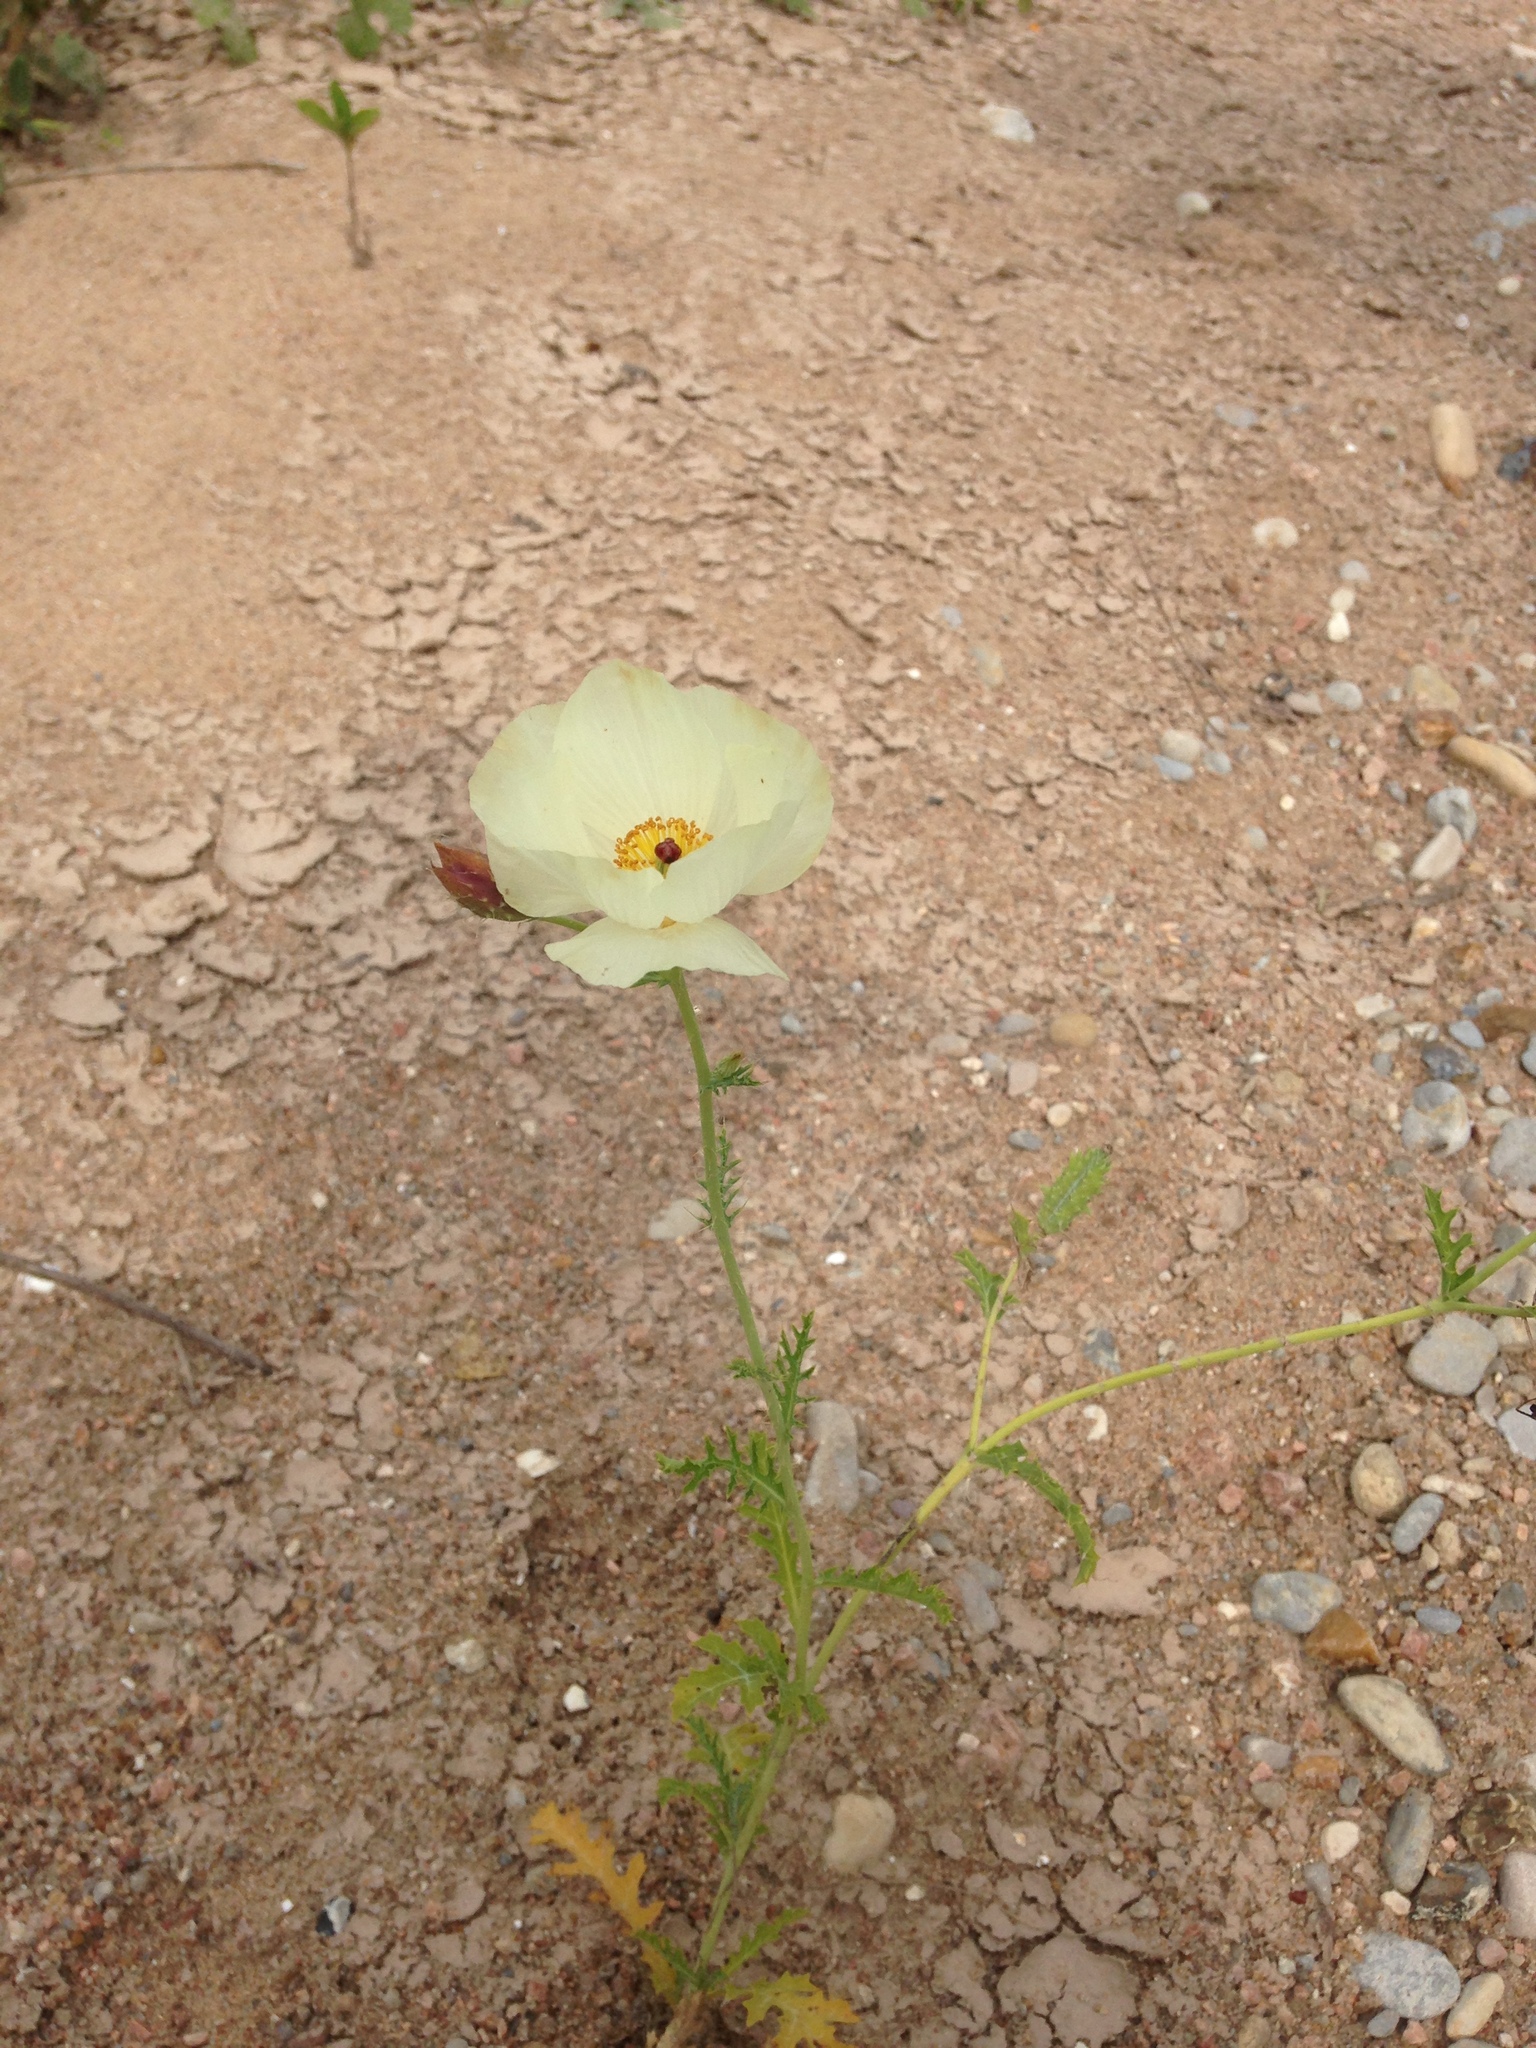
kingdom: Plantae
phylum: Tracheophyta
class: Magnoliopsida
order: Ranunculales
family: Papaveraceae
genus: Argemone
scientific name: Argemone albiflora
